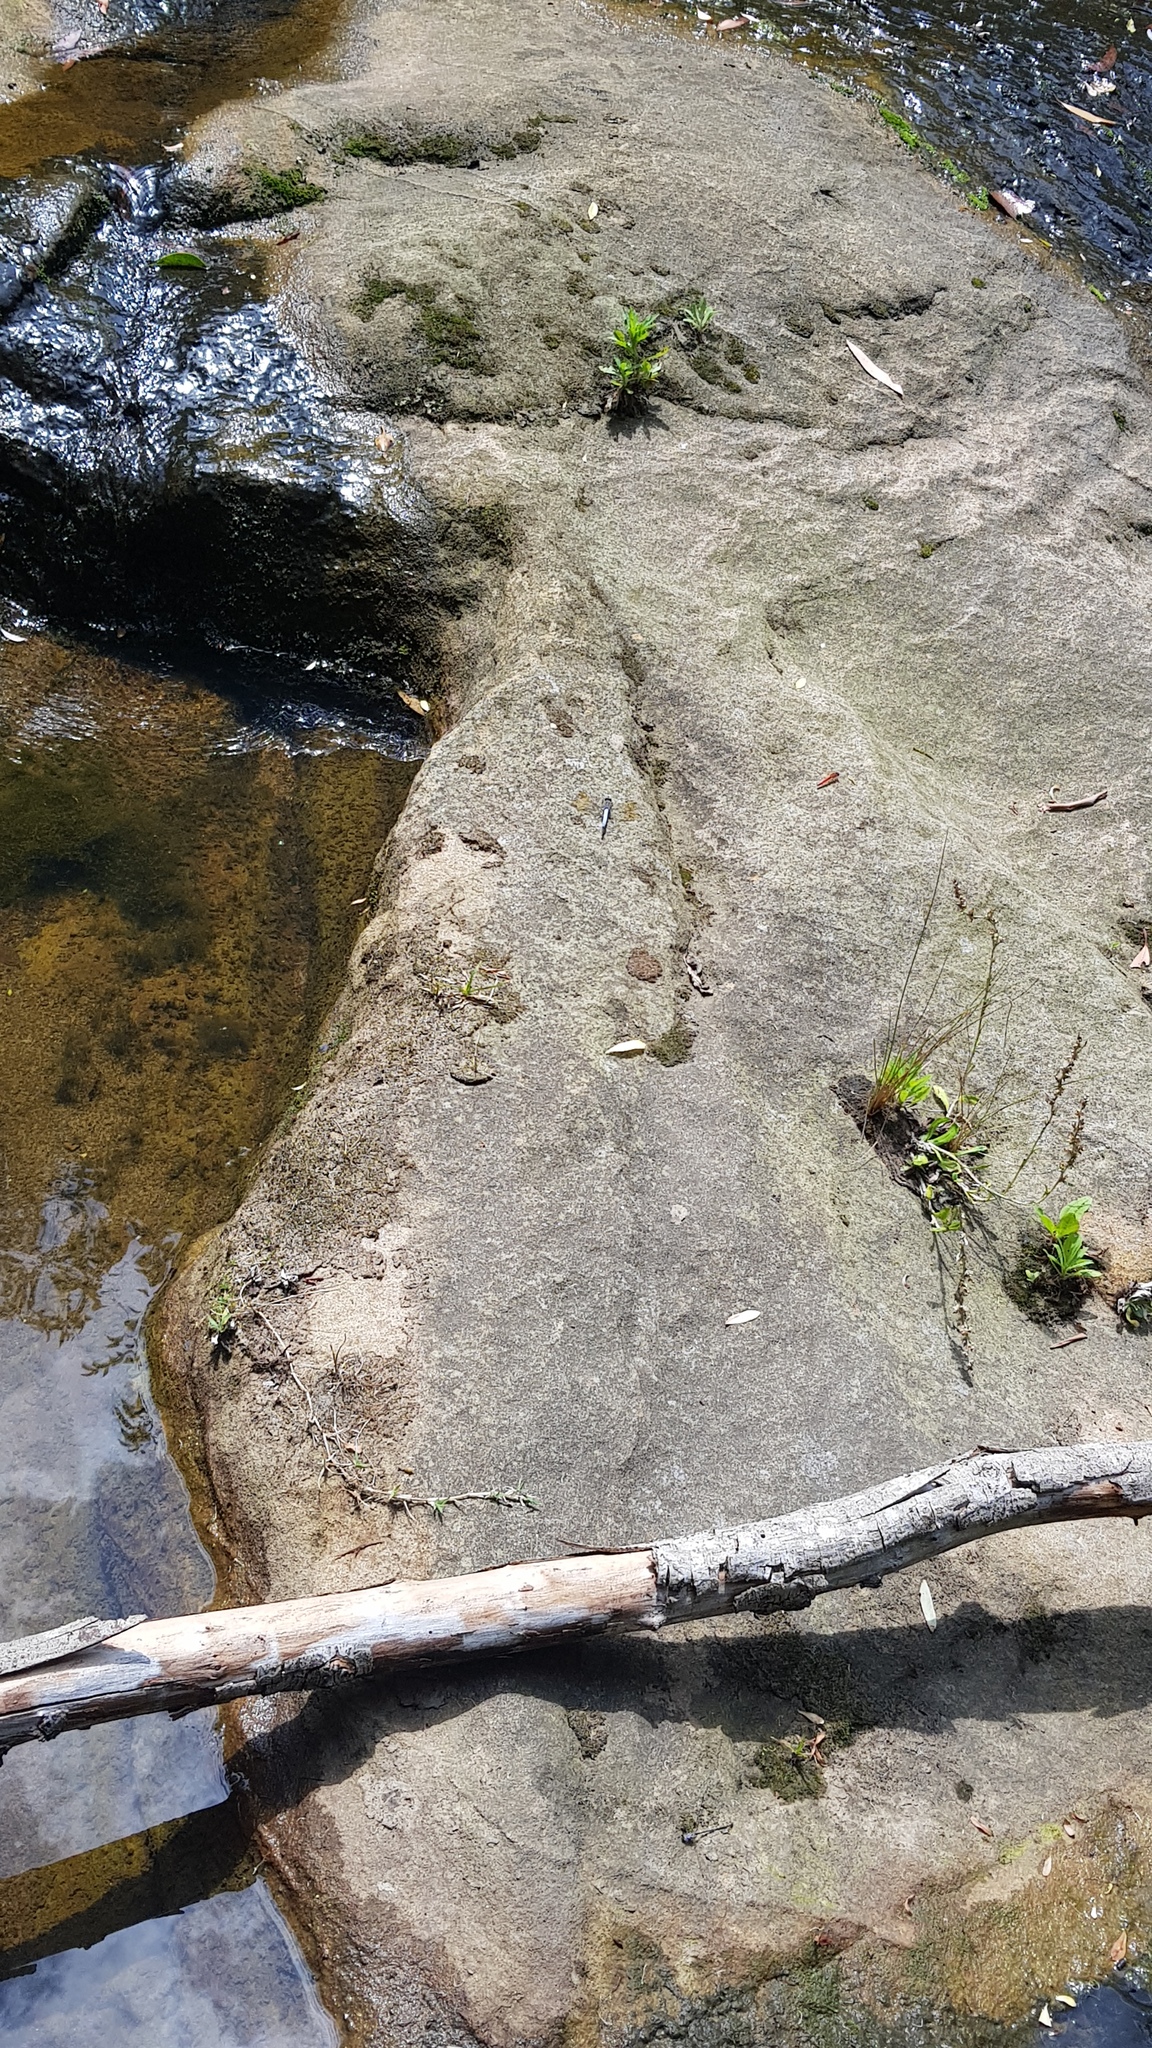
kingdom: Animalia
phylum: Arthropoda
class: Insecta
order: Odonata
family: Libellulidae
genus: Orthetrum
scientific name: Orthetrum caledonicum
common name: Blue skimmer
